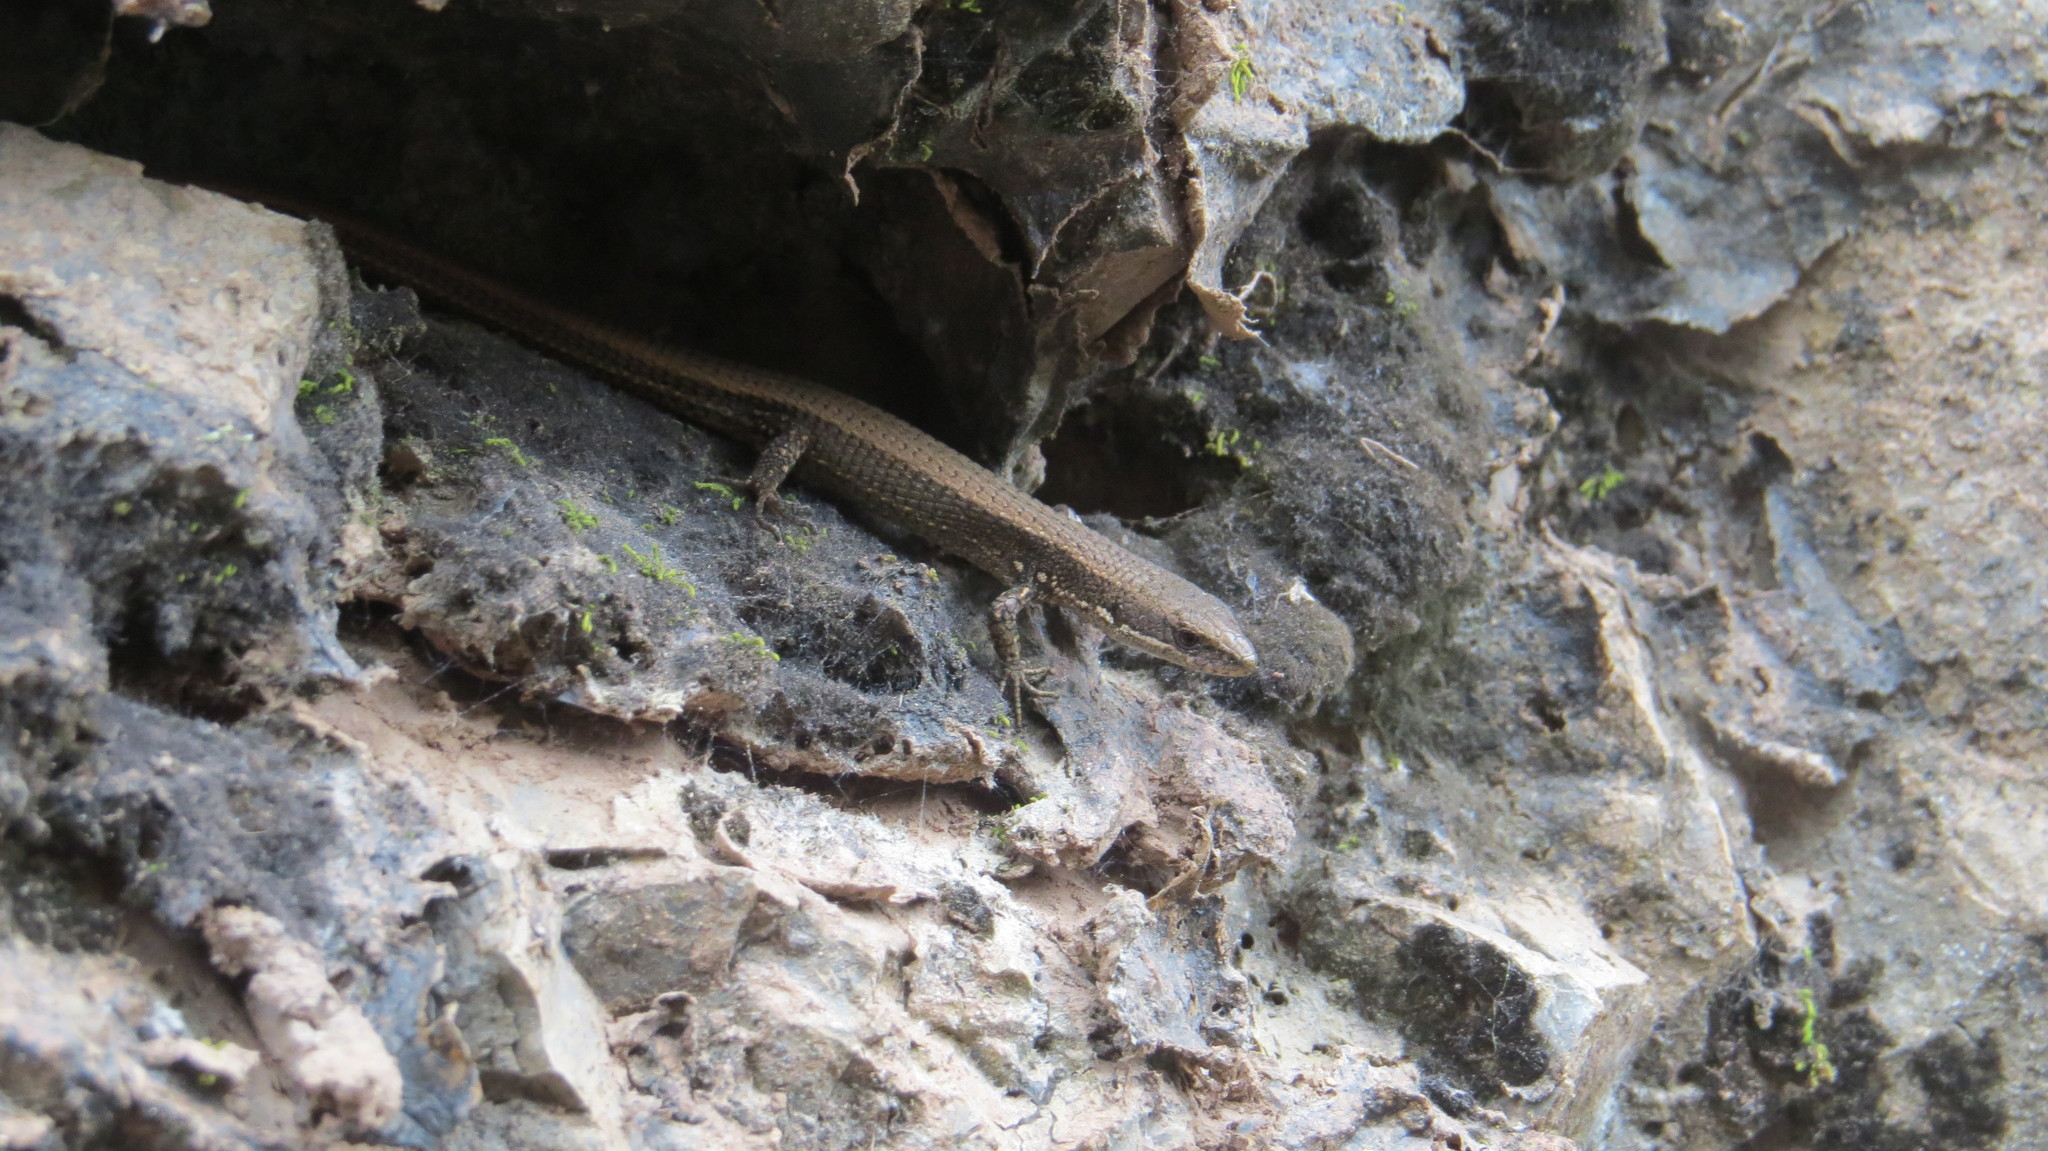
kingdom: Animalia
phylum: Chordata
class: Squamata
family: Gymnophthalmidae
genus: Cercosaura
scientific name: Cercosaura parkeri
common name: Parker's many-fingered teiid
